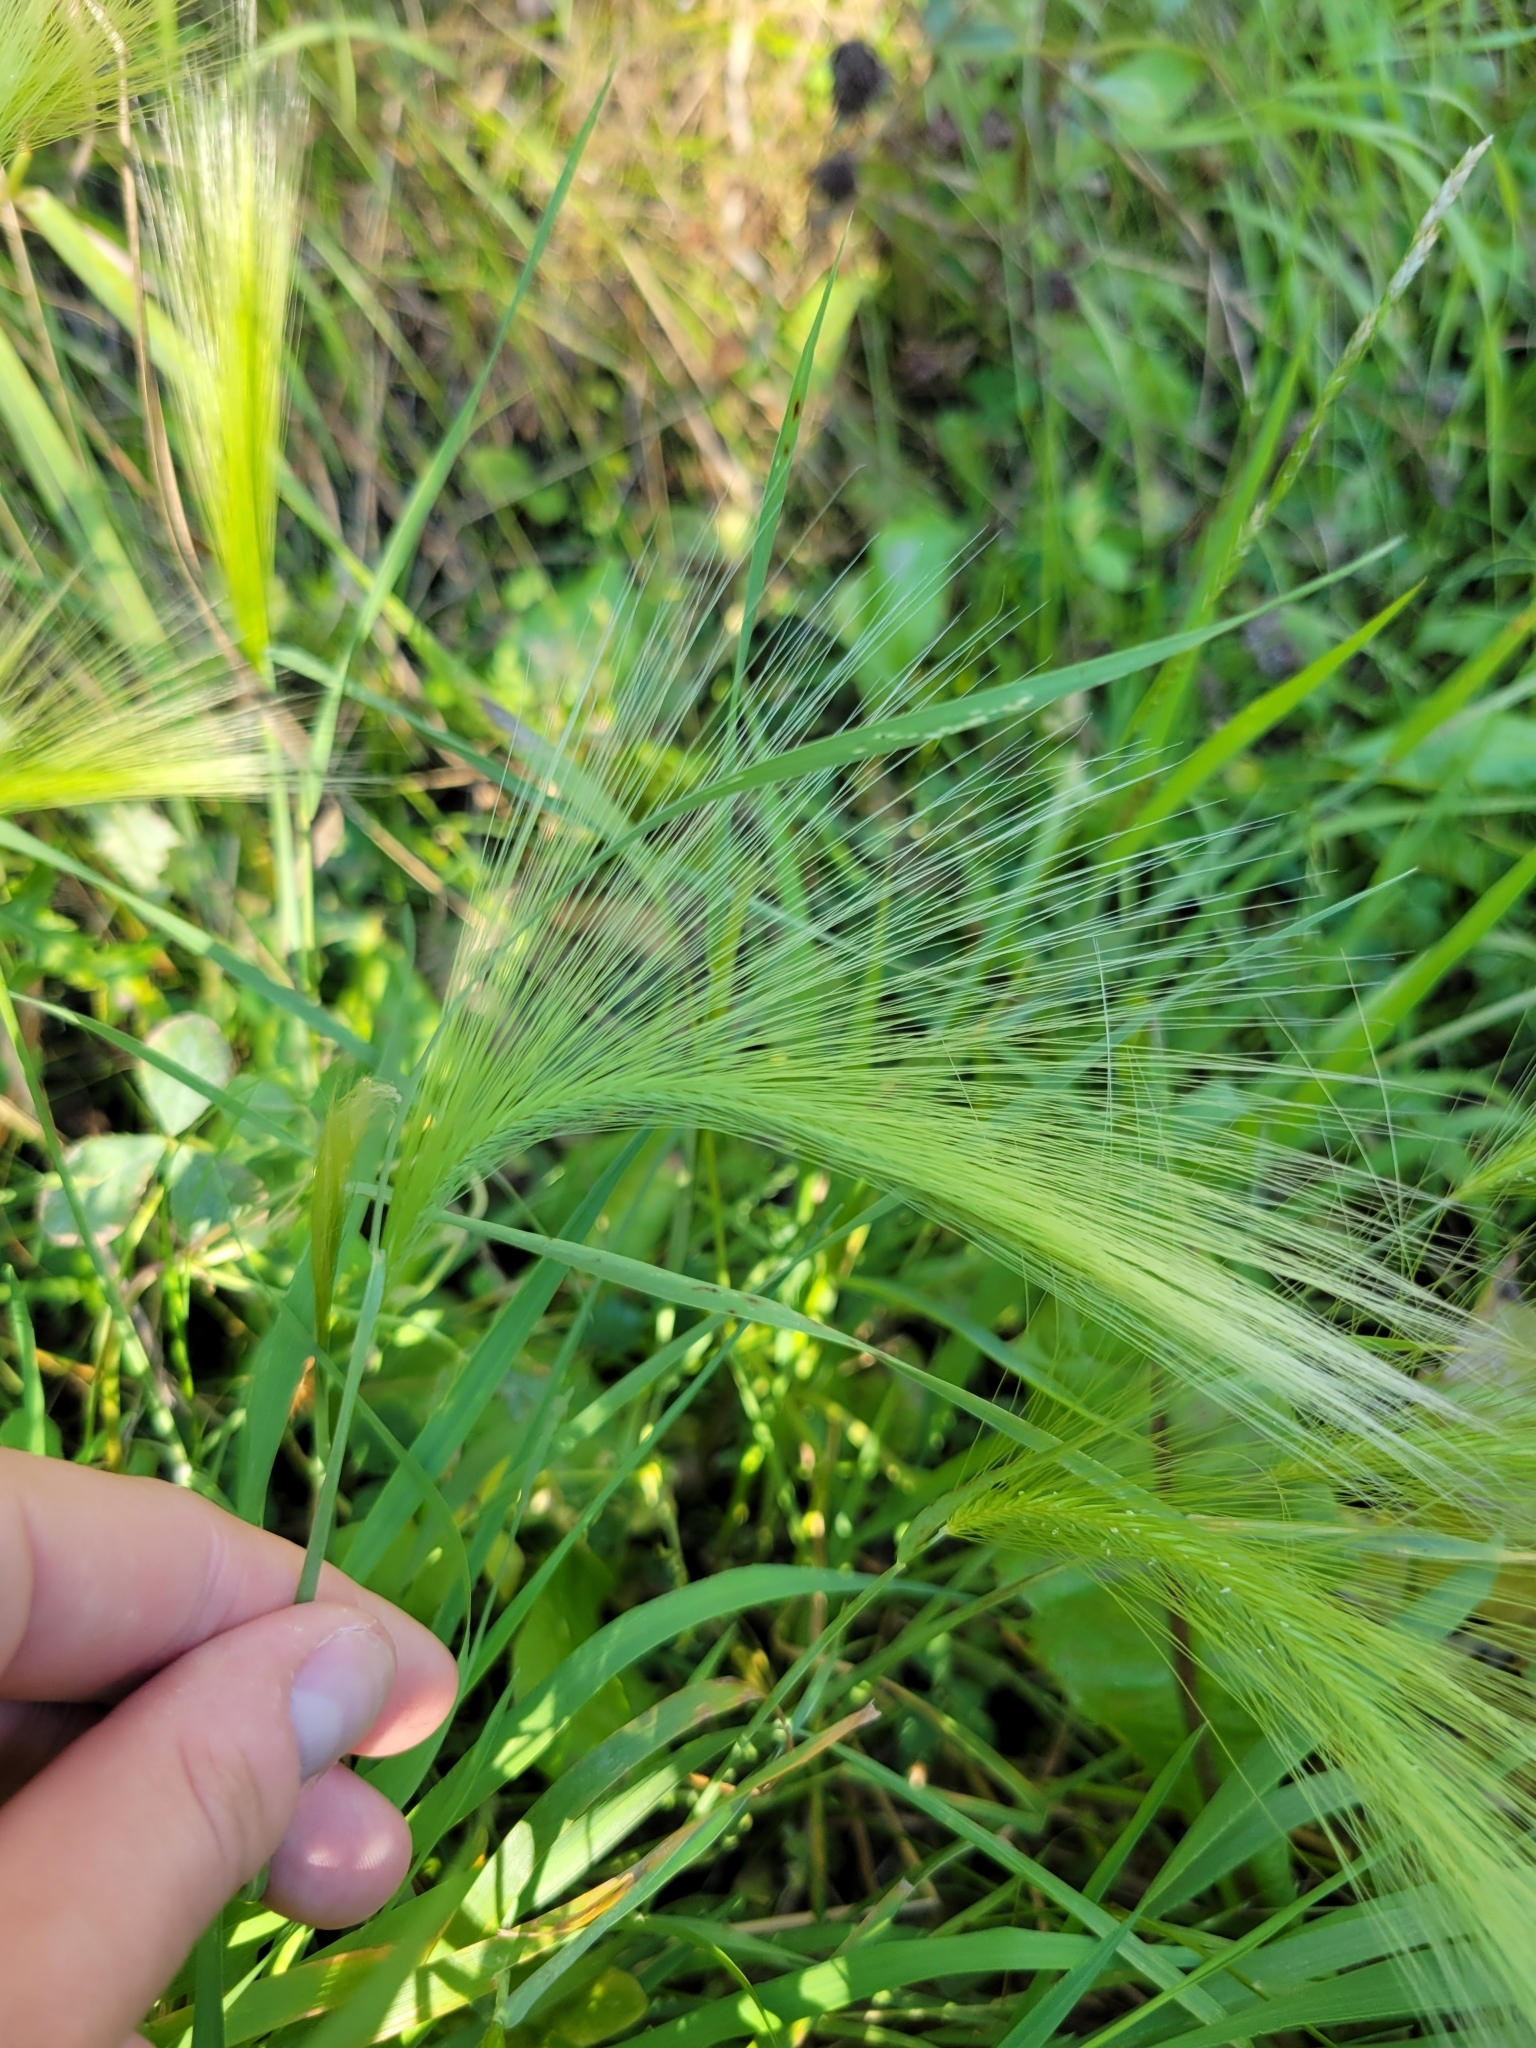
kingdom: Plantae
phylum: Tracheophyta
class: Liliopsida
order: Poales
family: Poaceae
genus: Hordeum
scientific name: Hordeum jubatum
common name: Foxtail barley
